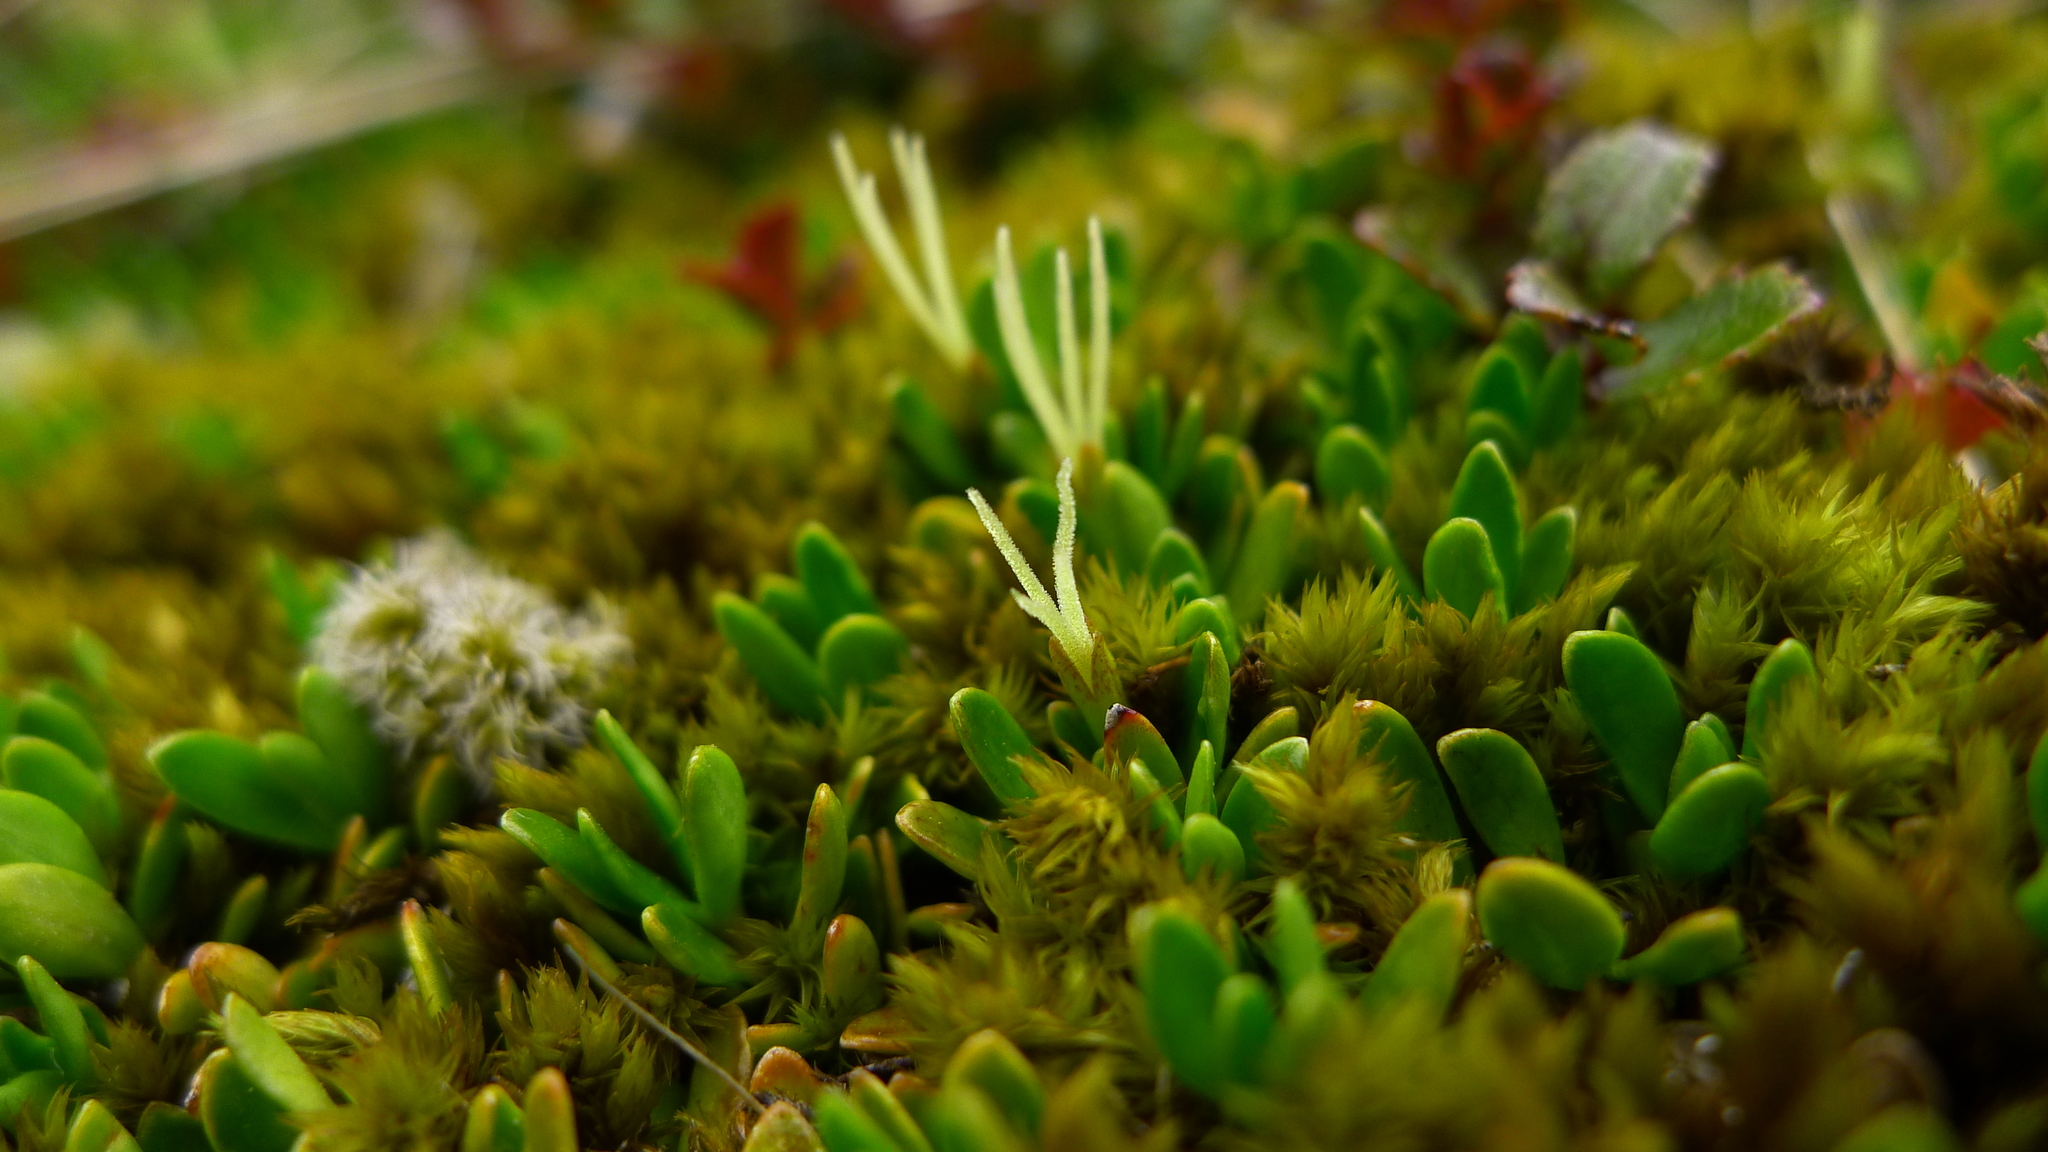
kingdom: Plantae
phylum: Tracheophyta
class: Magnoliopsida
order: Gentianales
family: Rubiaceae
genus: Coprosma
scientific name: Coprosma perpusilla
